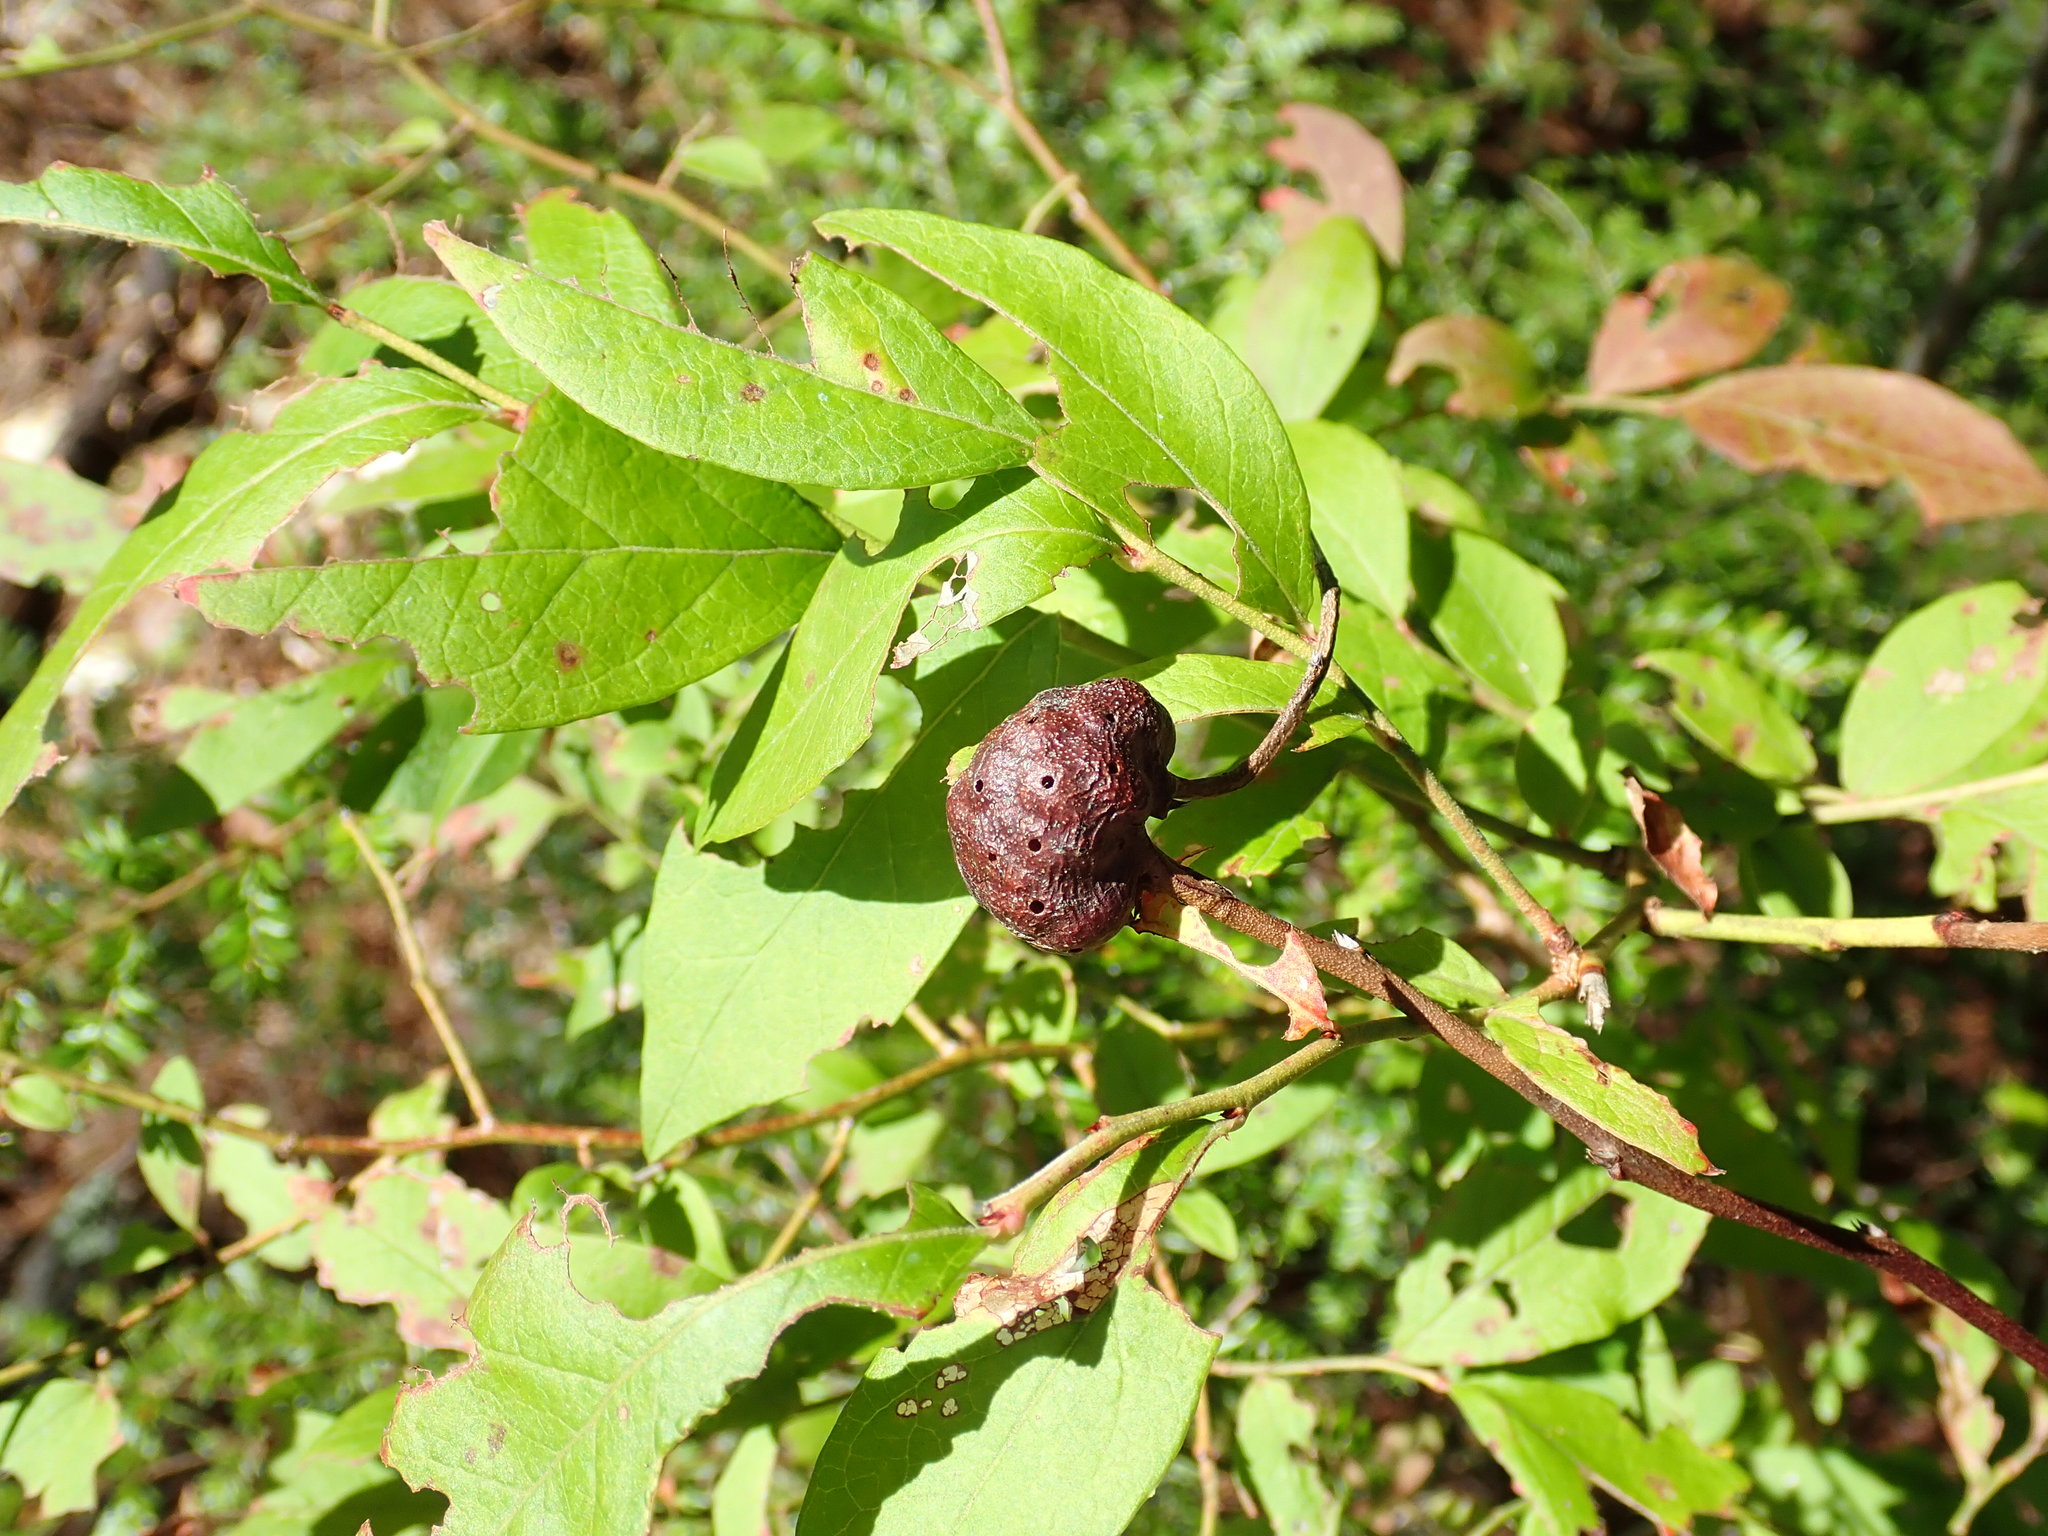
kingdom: Animalia
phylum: Arthropoda
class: Insecta
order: Hymenoptera
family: Pteromalidae
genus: Hemadas
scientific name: Hemadas nubilipennis
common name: Blueberry stem gall wasp
